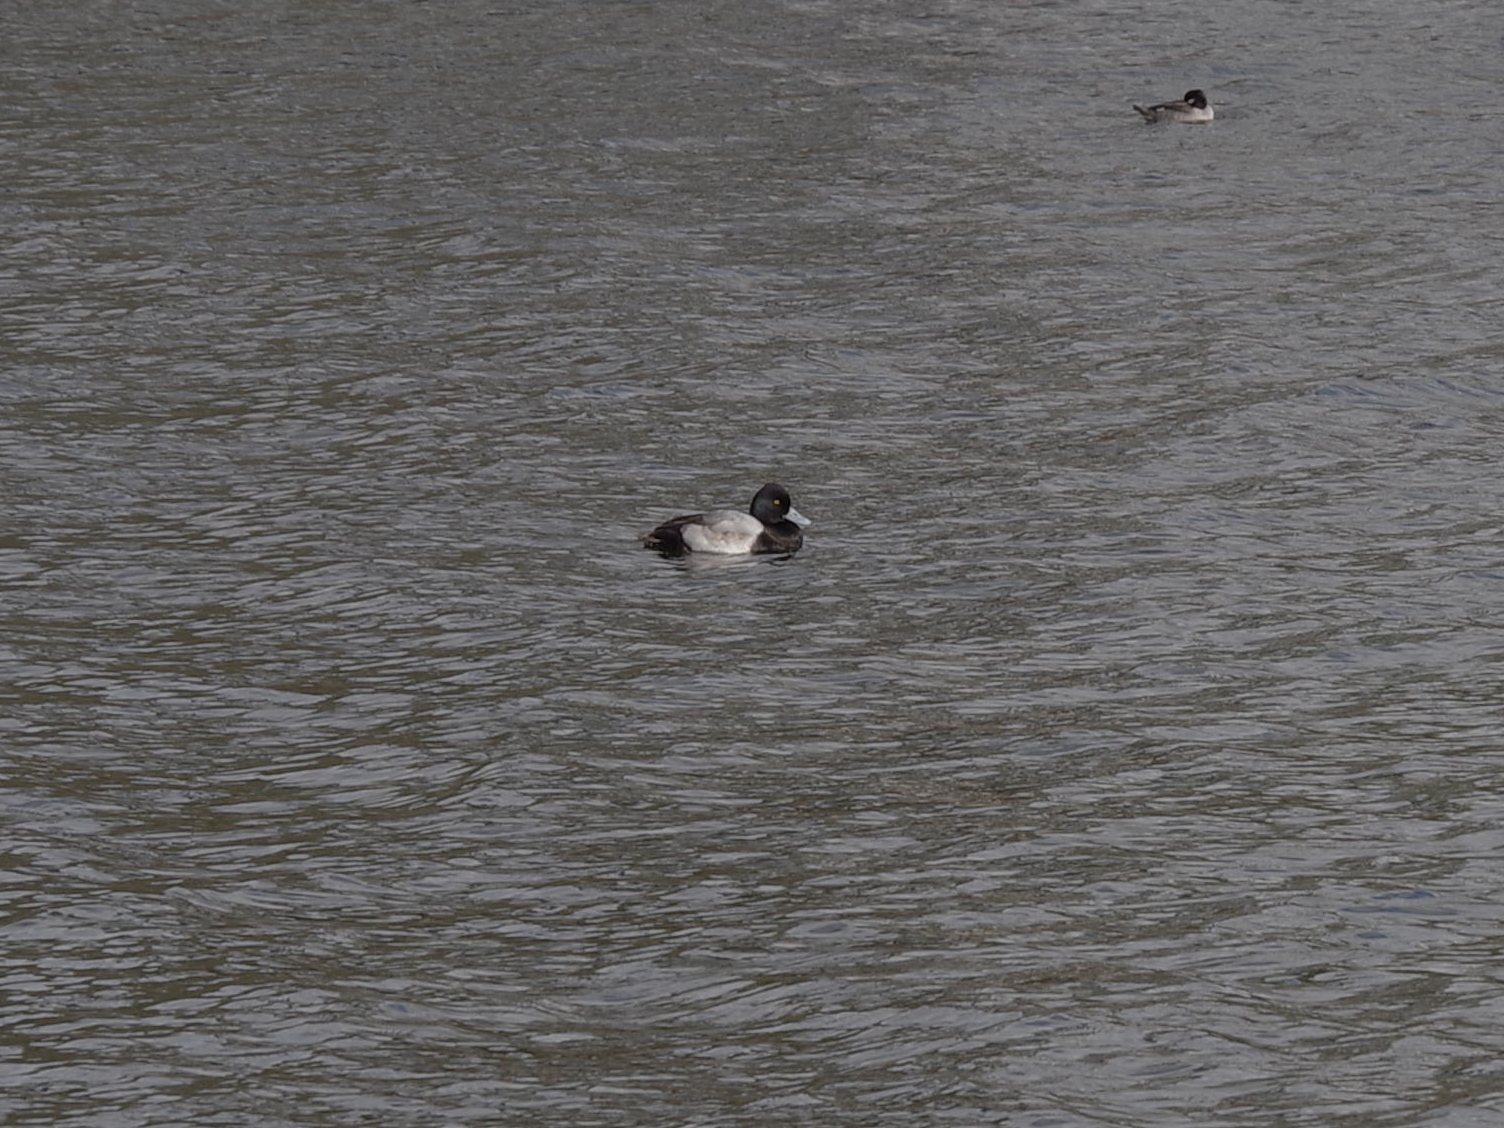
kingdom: Animalia
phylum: Chordata
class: Aves
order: Anseriformes
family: Anatidae
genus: Aythya
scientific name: Aythya affinis
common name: Lesser scaup
